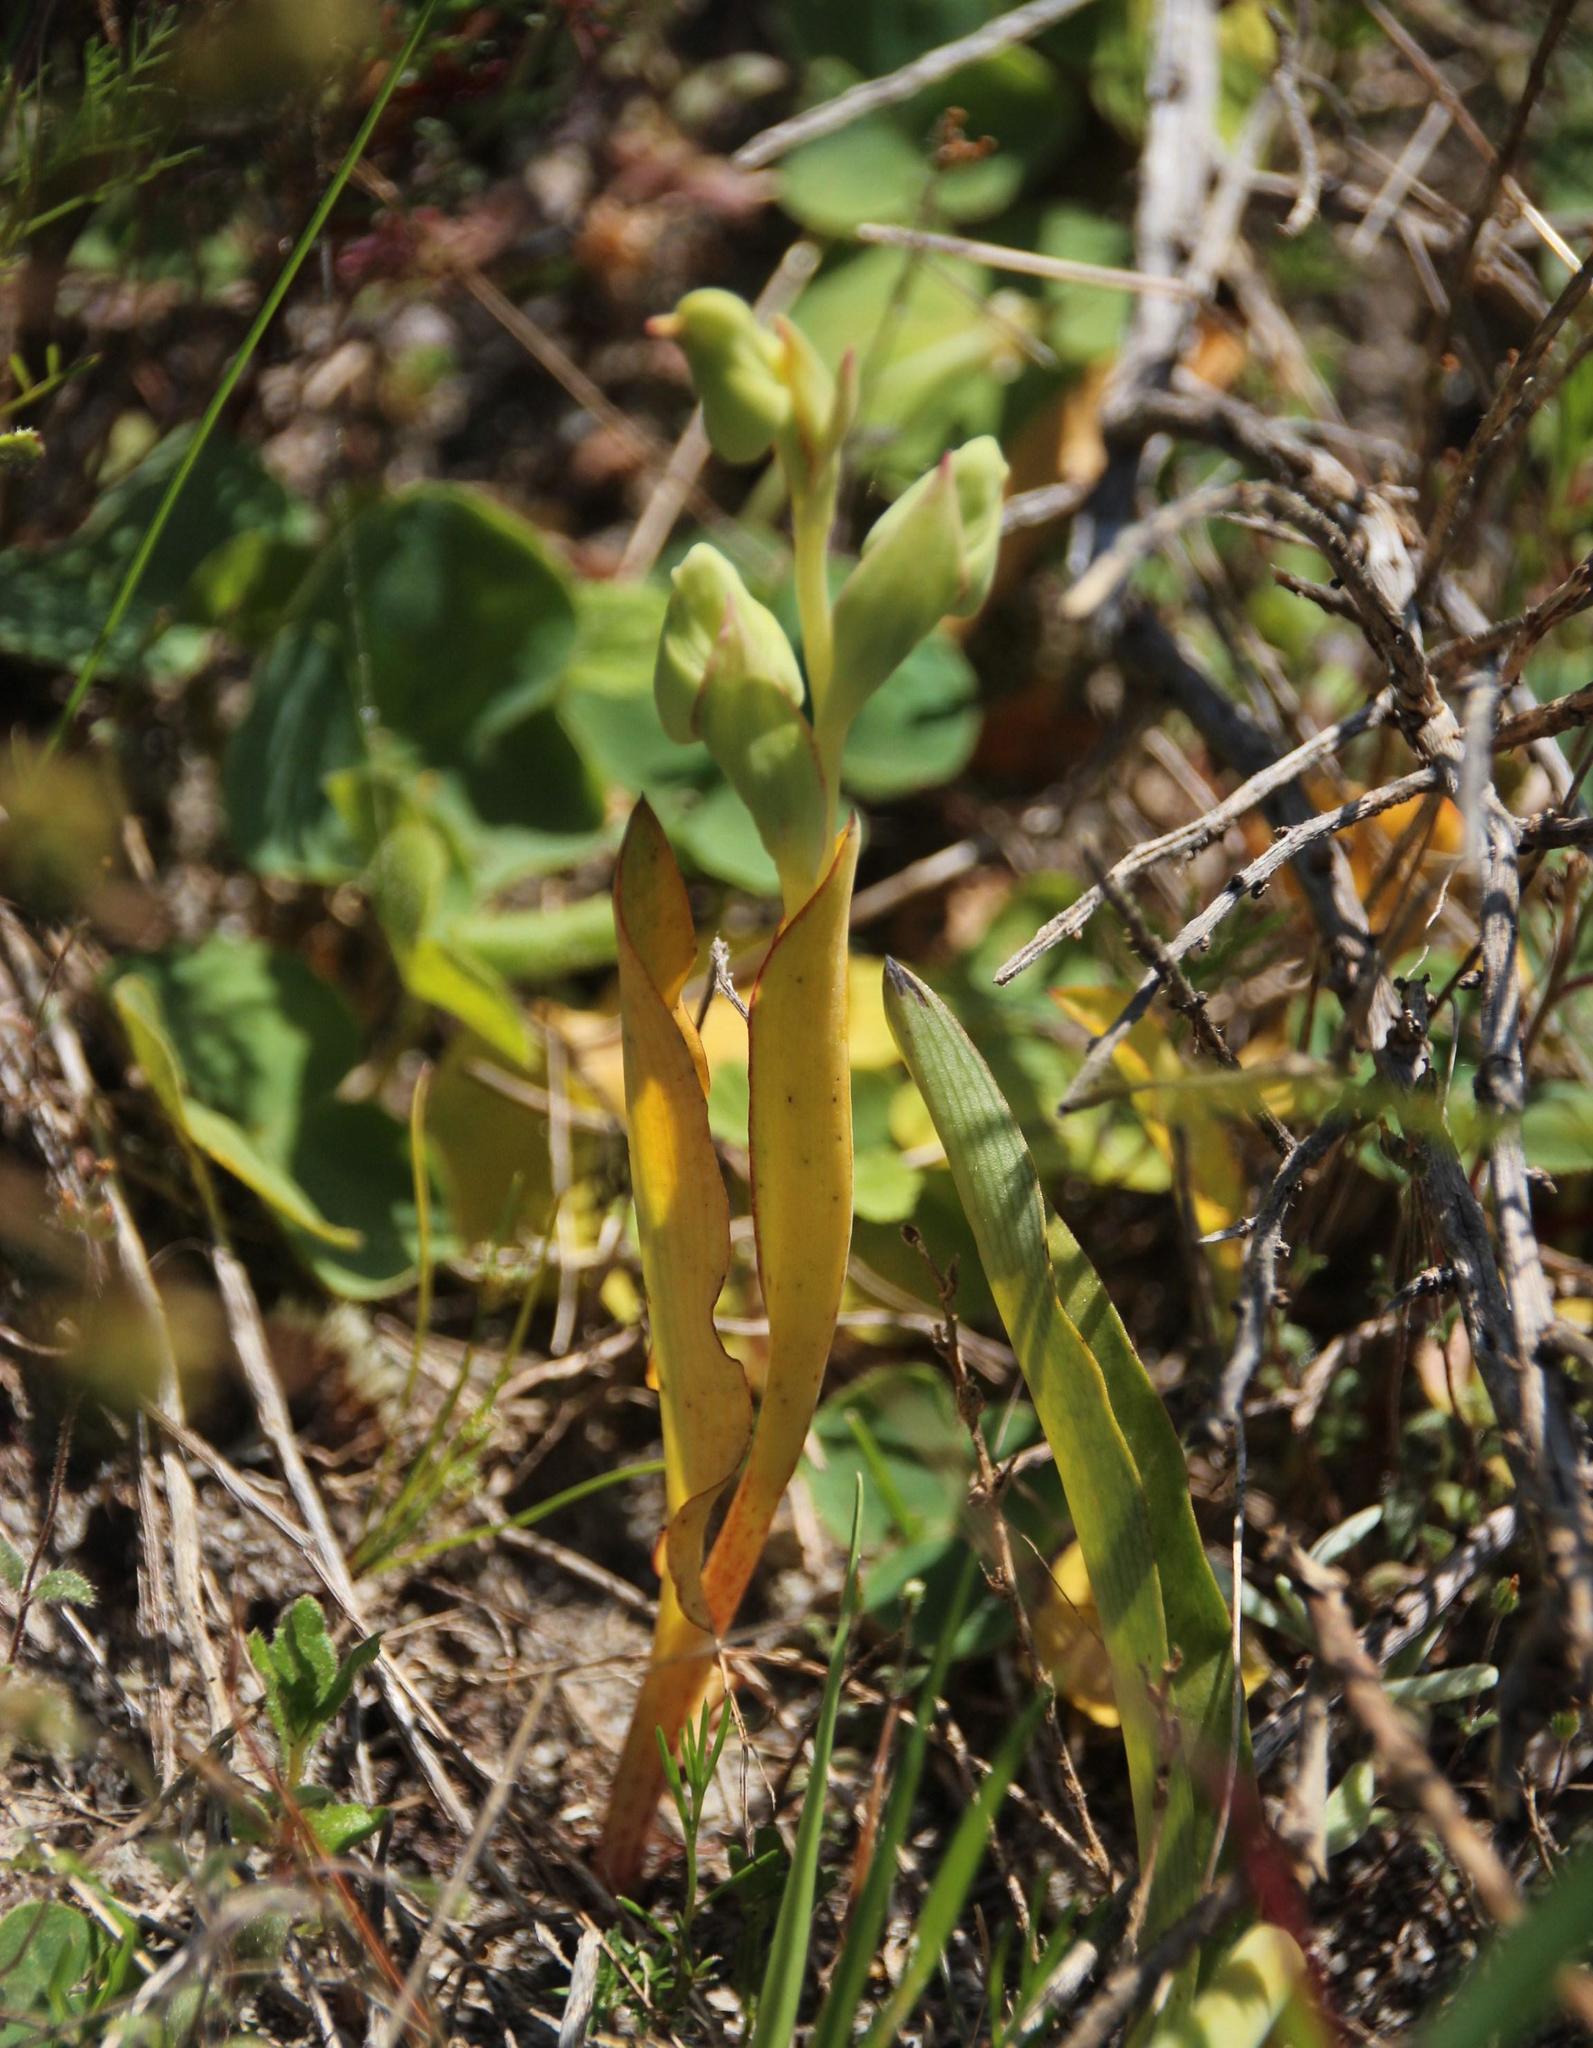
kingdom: Plantae
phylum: Tracheophyta
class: Liliopsida
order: Asparagales
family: Orchidaceae
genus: Pterygodium
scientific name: Pterygodium catholicum
